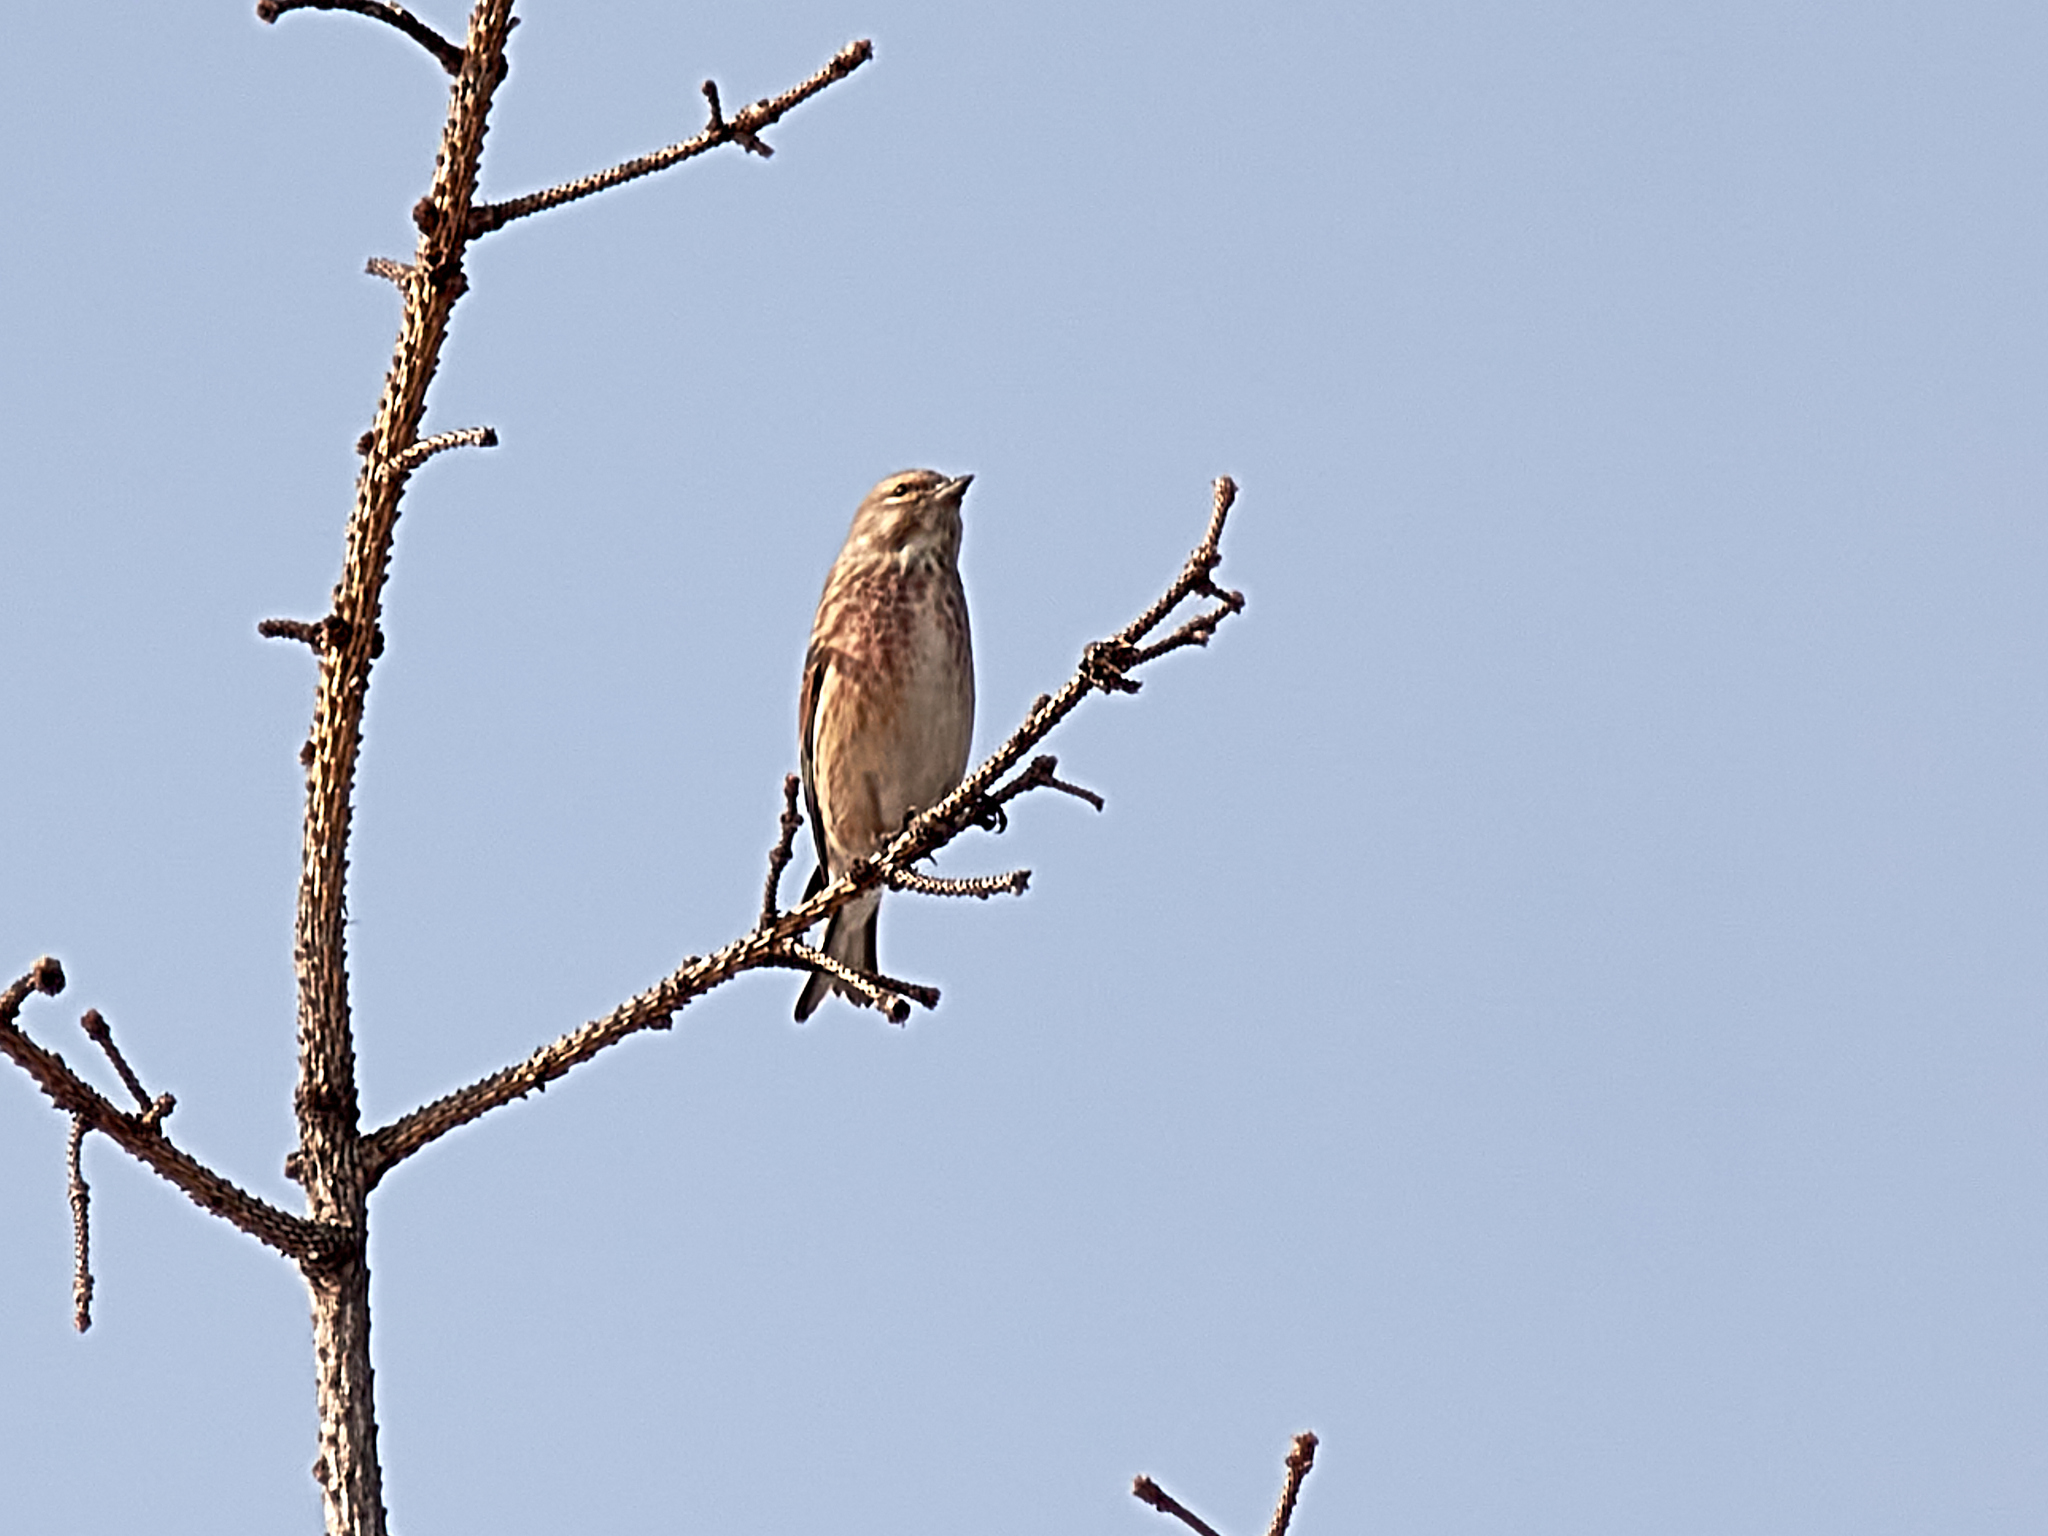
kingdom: Animalia
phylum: Chordata
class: Aves
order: Passeriformes
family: Fringillidae
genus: Linaria
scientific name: Linaria cannabina
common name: Common linnet
